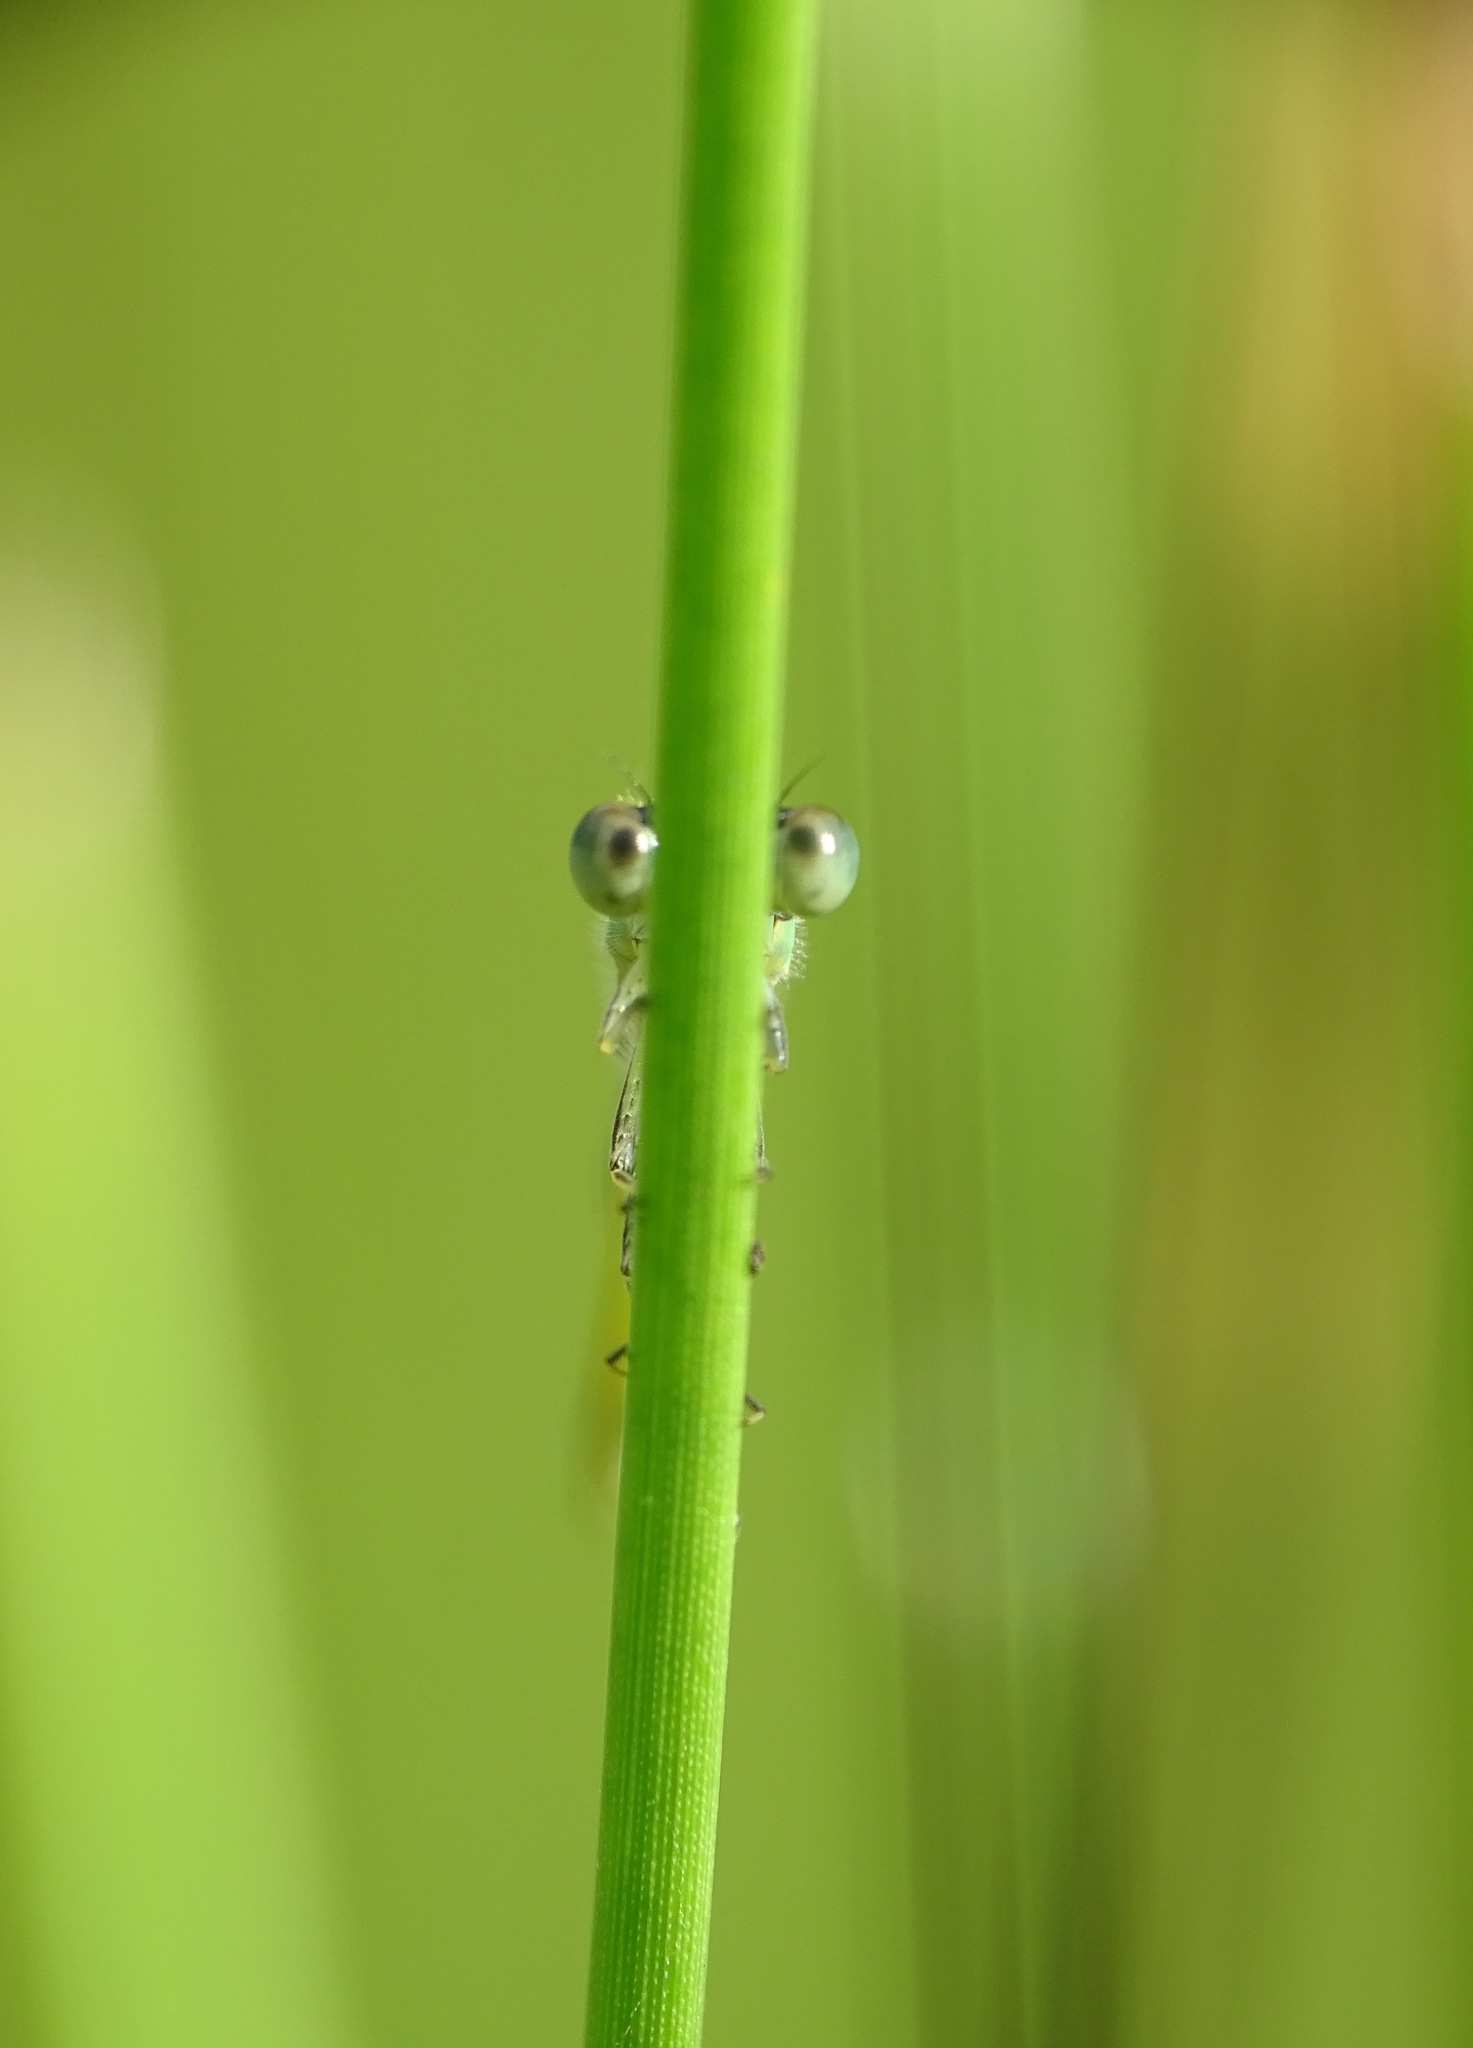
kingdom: Animalia
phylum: Arthropoda
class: Insecta
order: Odonata
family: Coenagrionidae
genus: Ischnura
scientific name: Ischnura senegalensis
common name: Tropical bluetail
